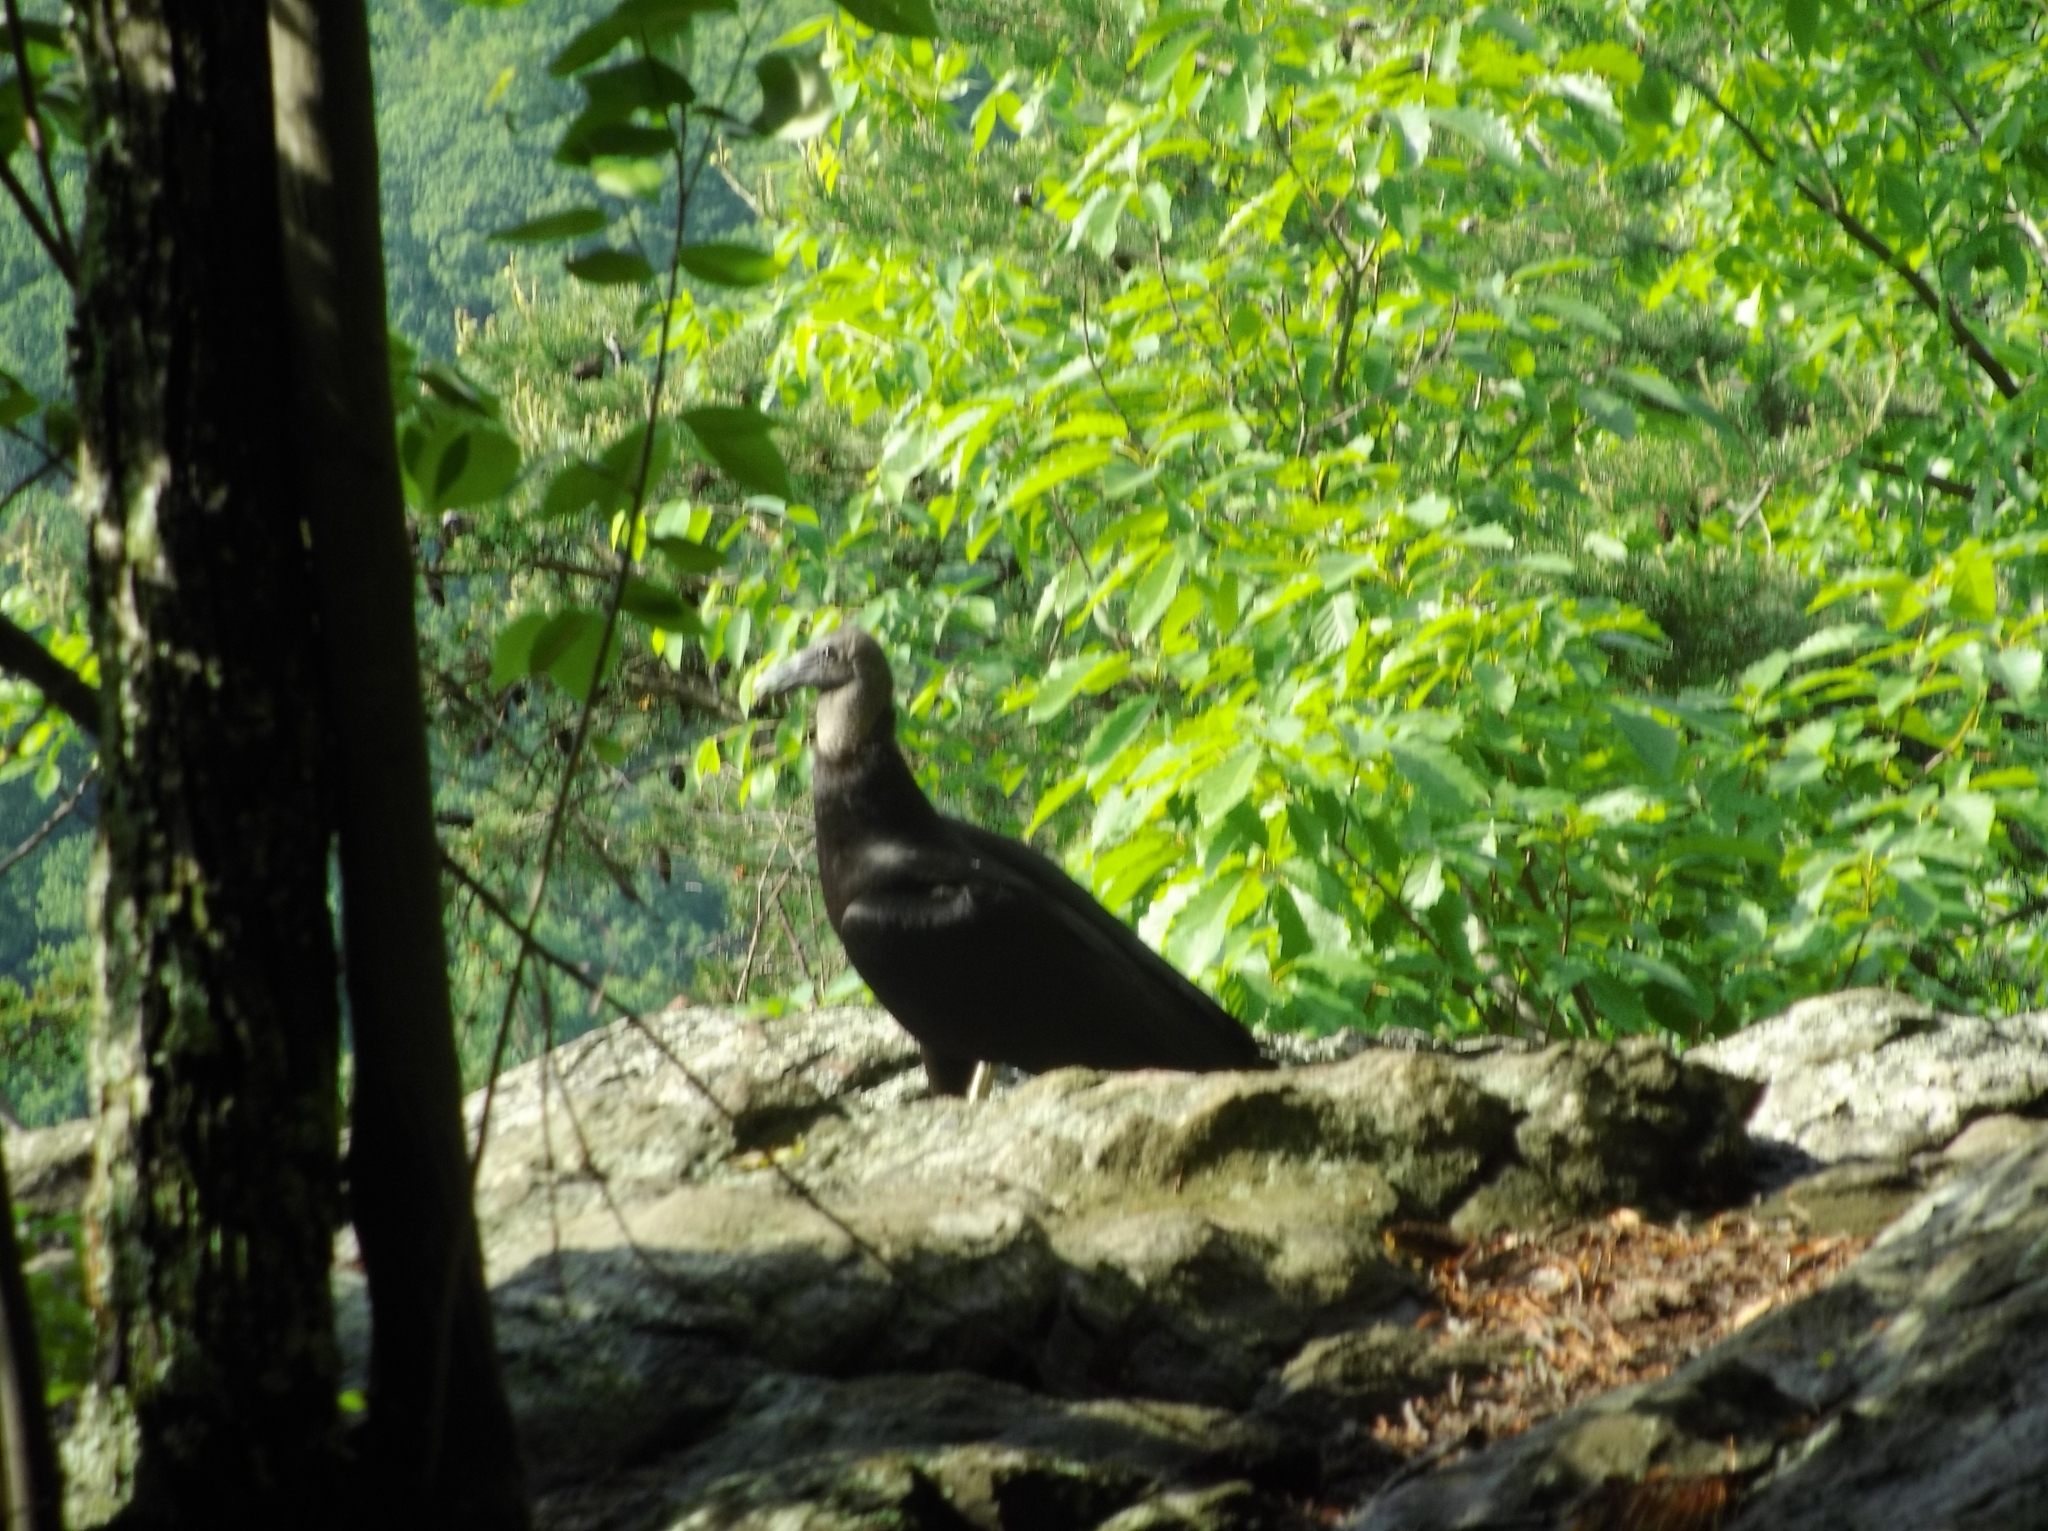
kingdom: Animalia
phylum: Chordata
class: Aves
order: Accipitriformes
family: Cathartidae
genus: Coragyps
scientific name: Coragyps atratus
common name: Black vulture
